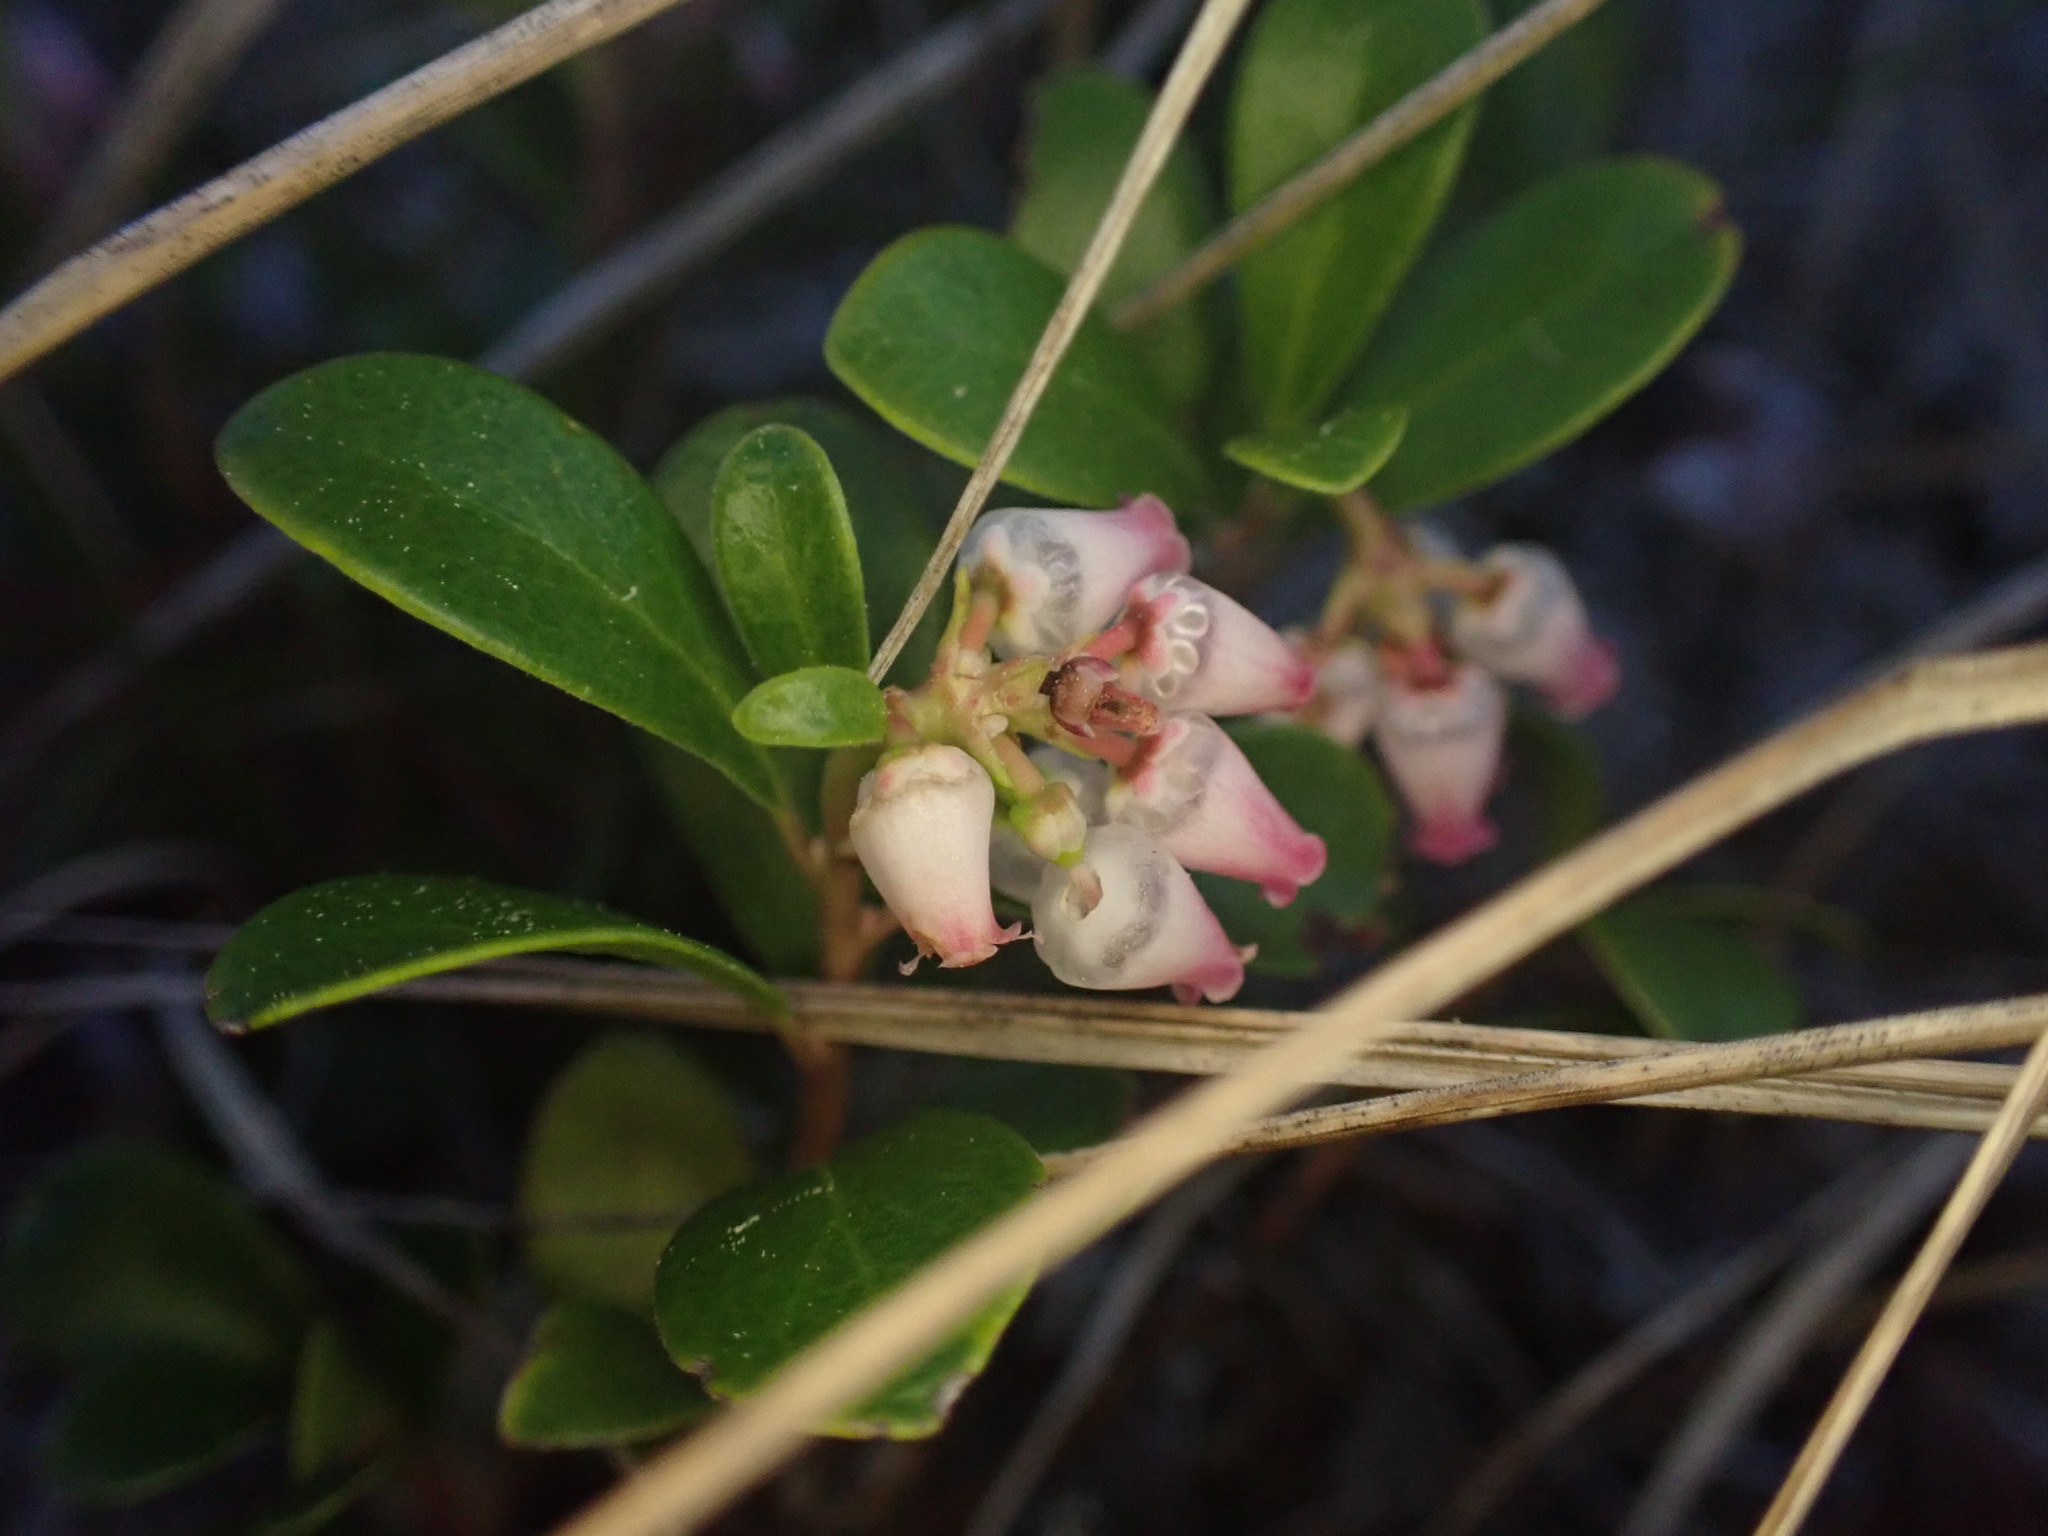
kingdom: Plantae
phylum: Tracheophyta
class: Magnoliopsida
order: Ericales
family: Ericaceae
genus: Arctostaphylos
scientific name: Arctostaphylos uva-ursi
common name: Bearberry
